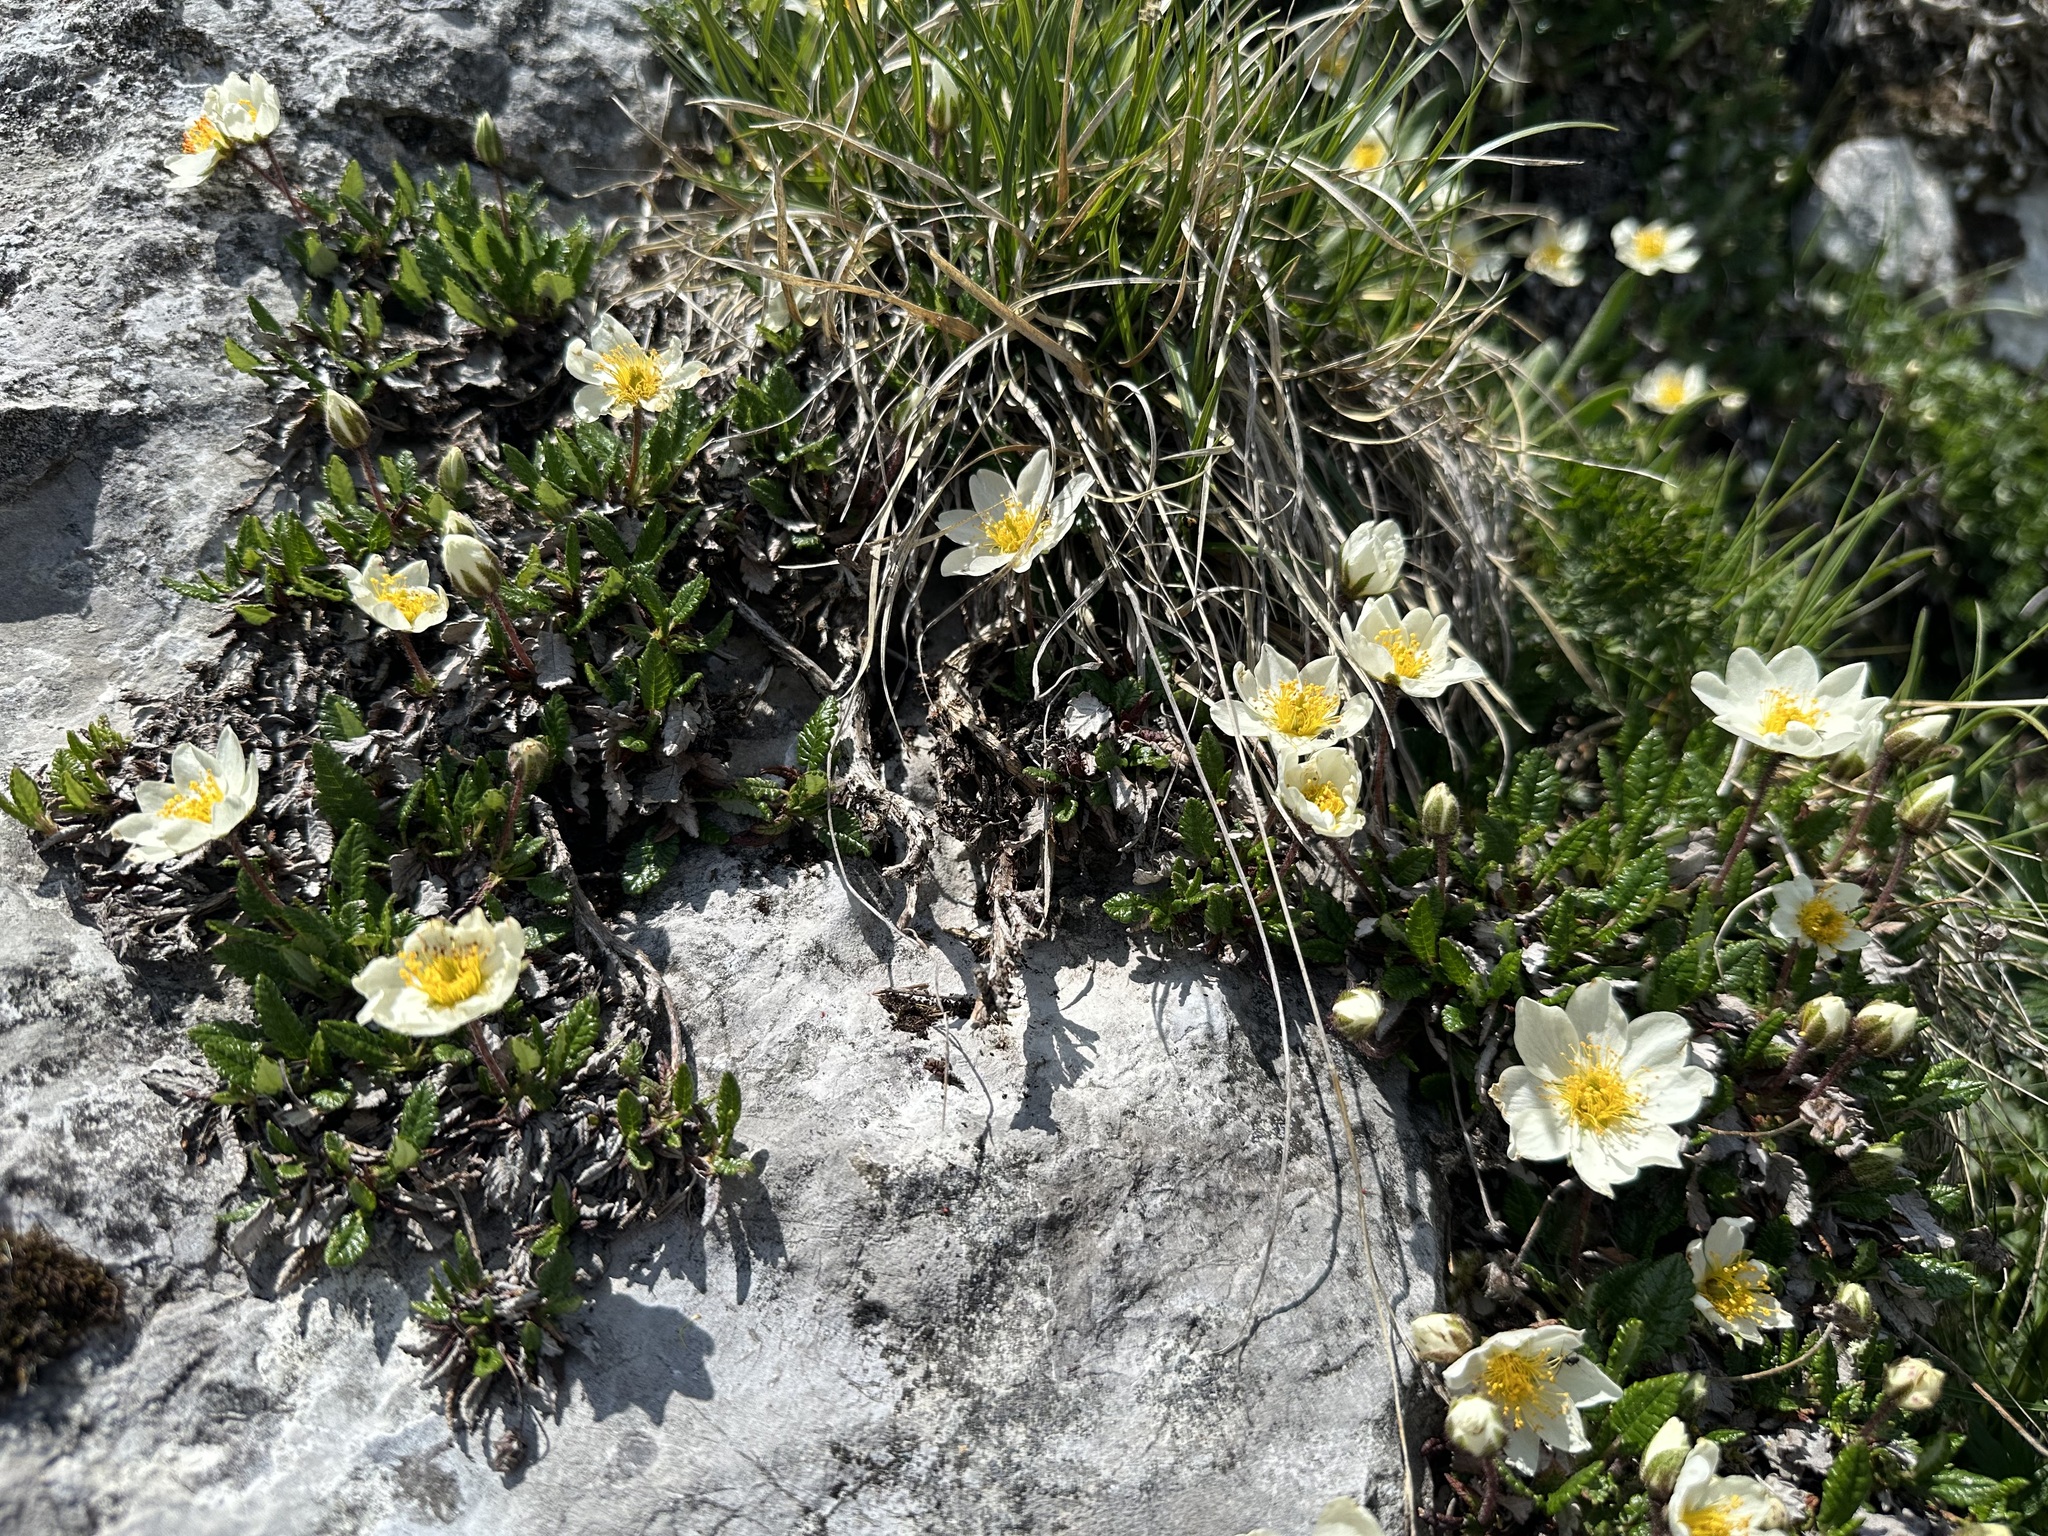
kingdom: Plantae
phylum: Tracheophyta
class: Magnoliopsida
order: Rosales
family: Rosaceae
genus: Dryas
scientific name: Dryas octopetala
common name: Eight-petal mountain-avens
